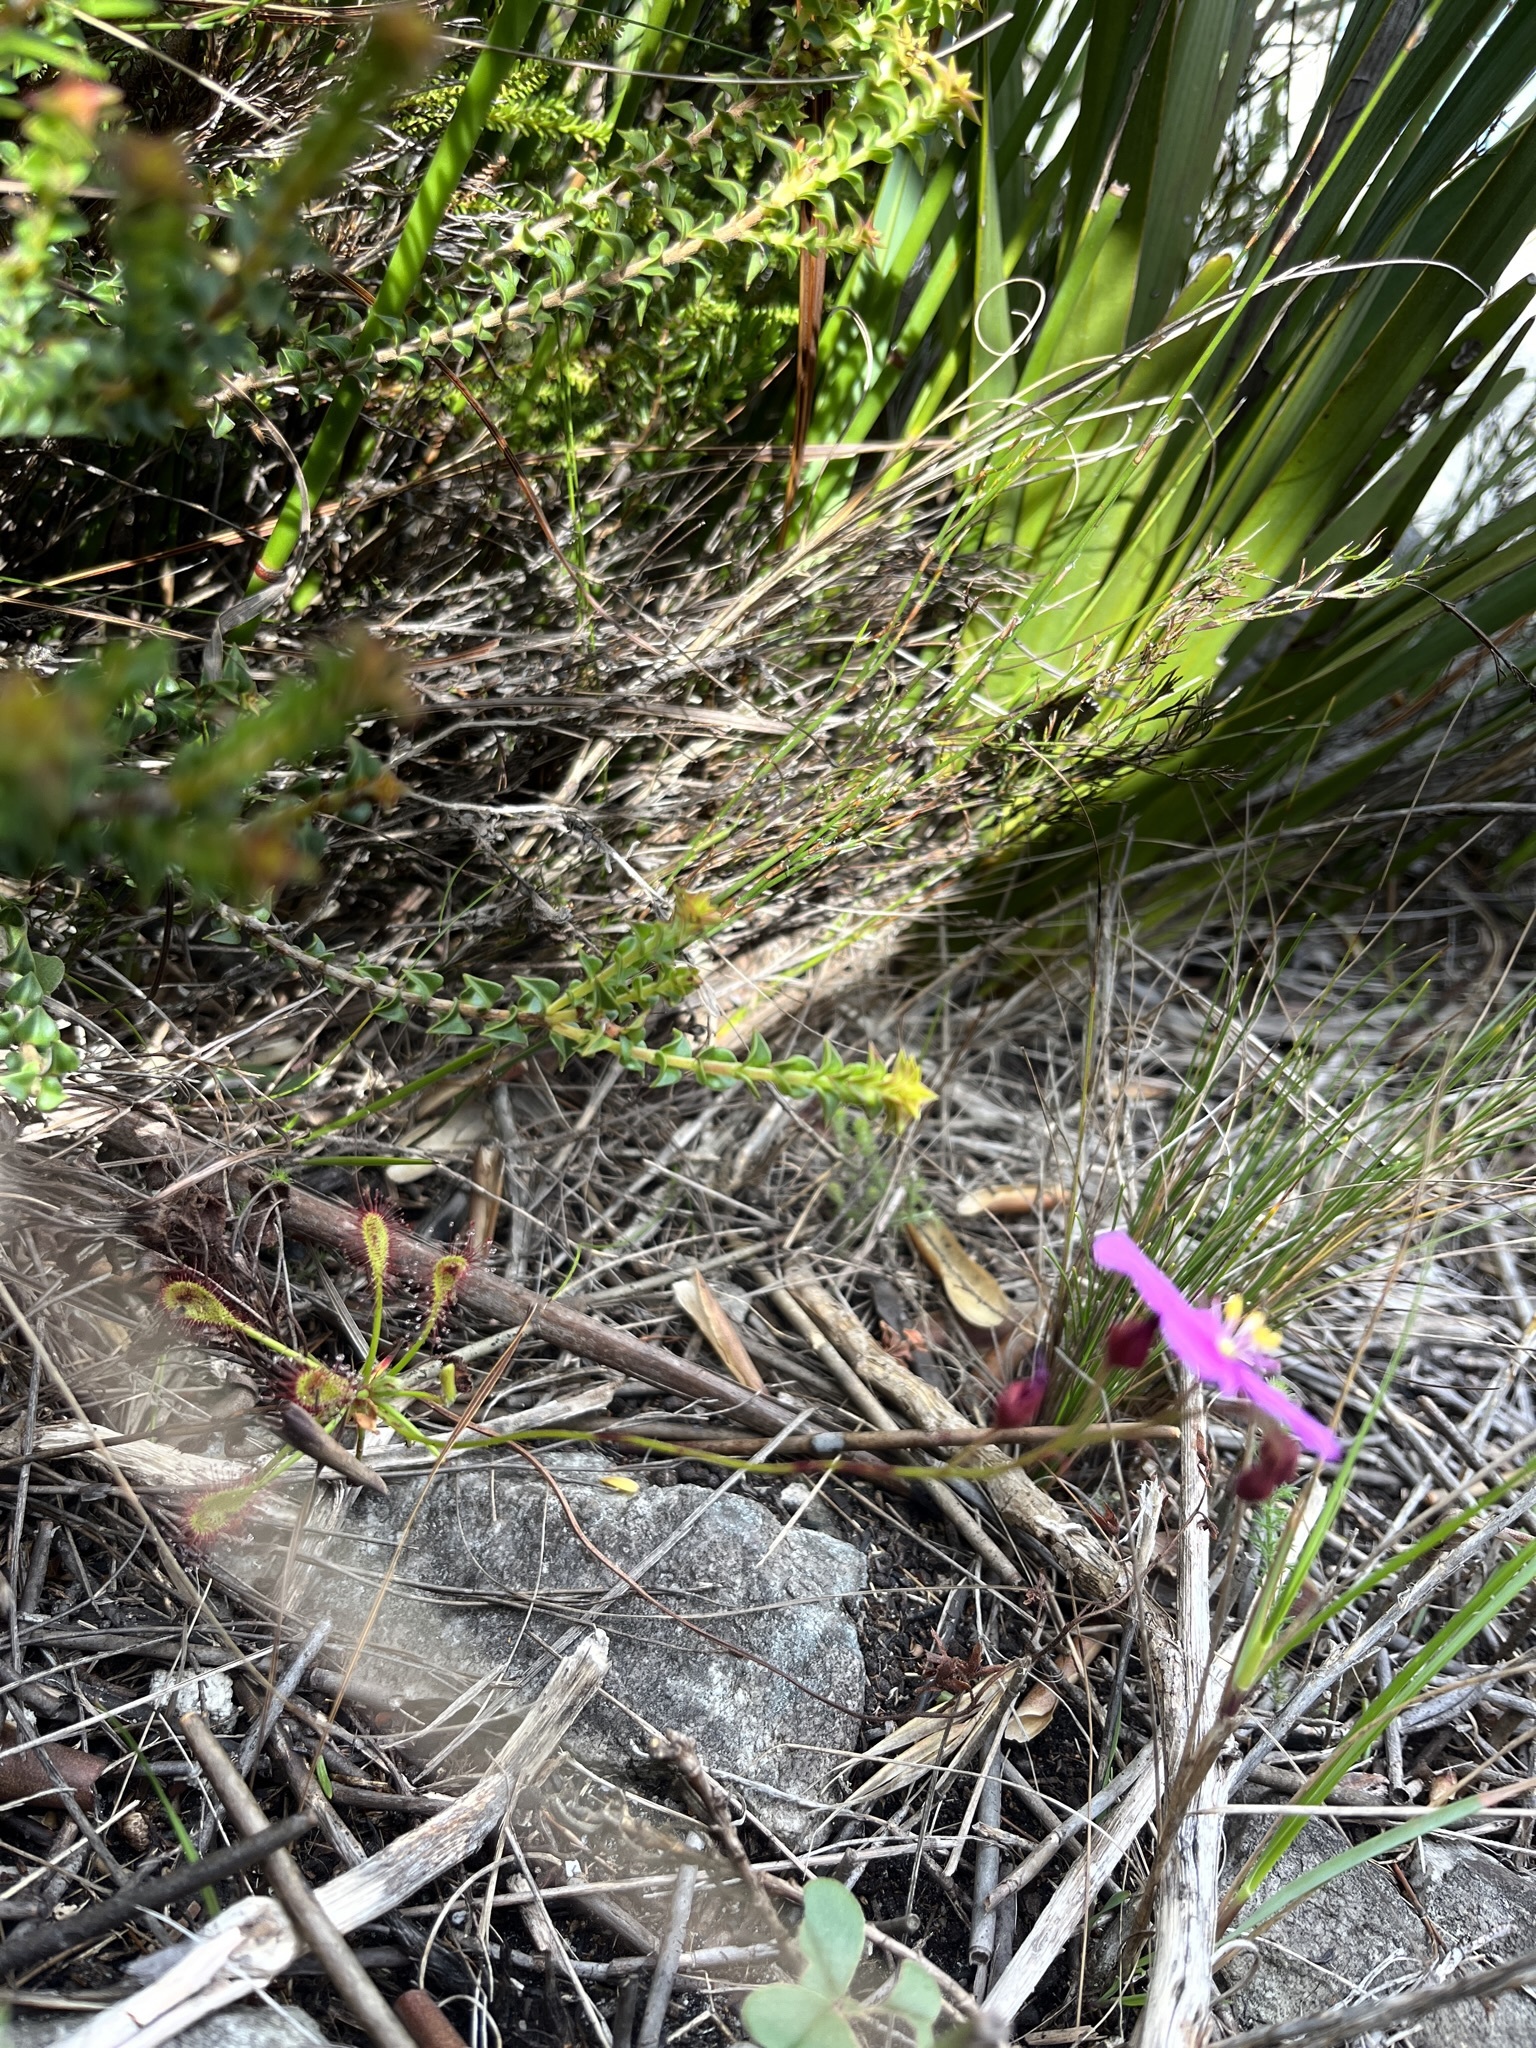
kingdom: Plantae
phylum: Tracheophyta
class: Magnoliopsida
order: Caryophyllales
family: Droseraceae
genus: Drosera
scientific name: Drosera glabripes
